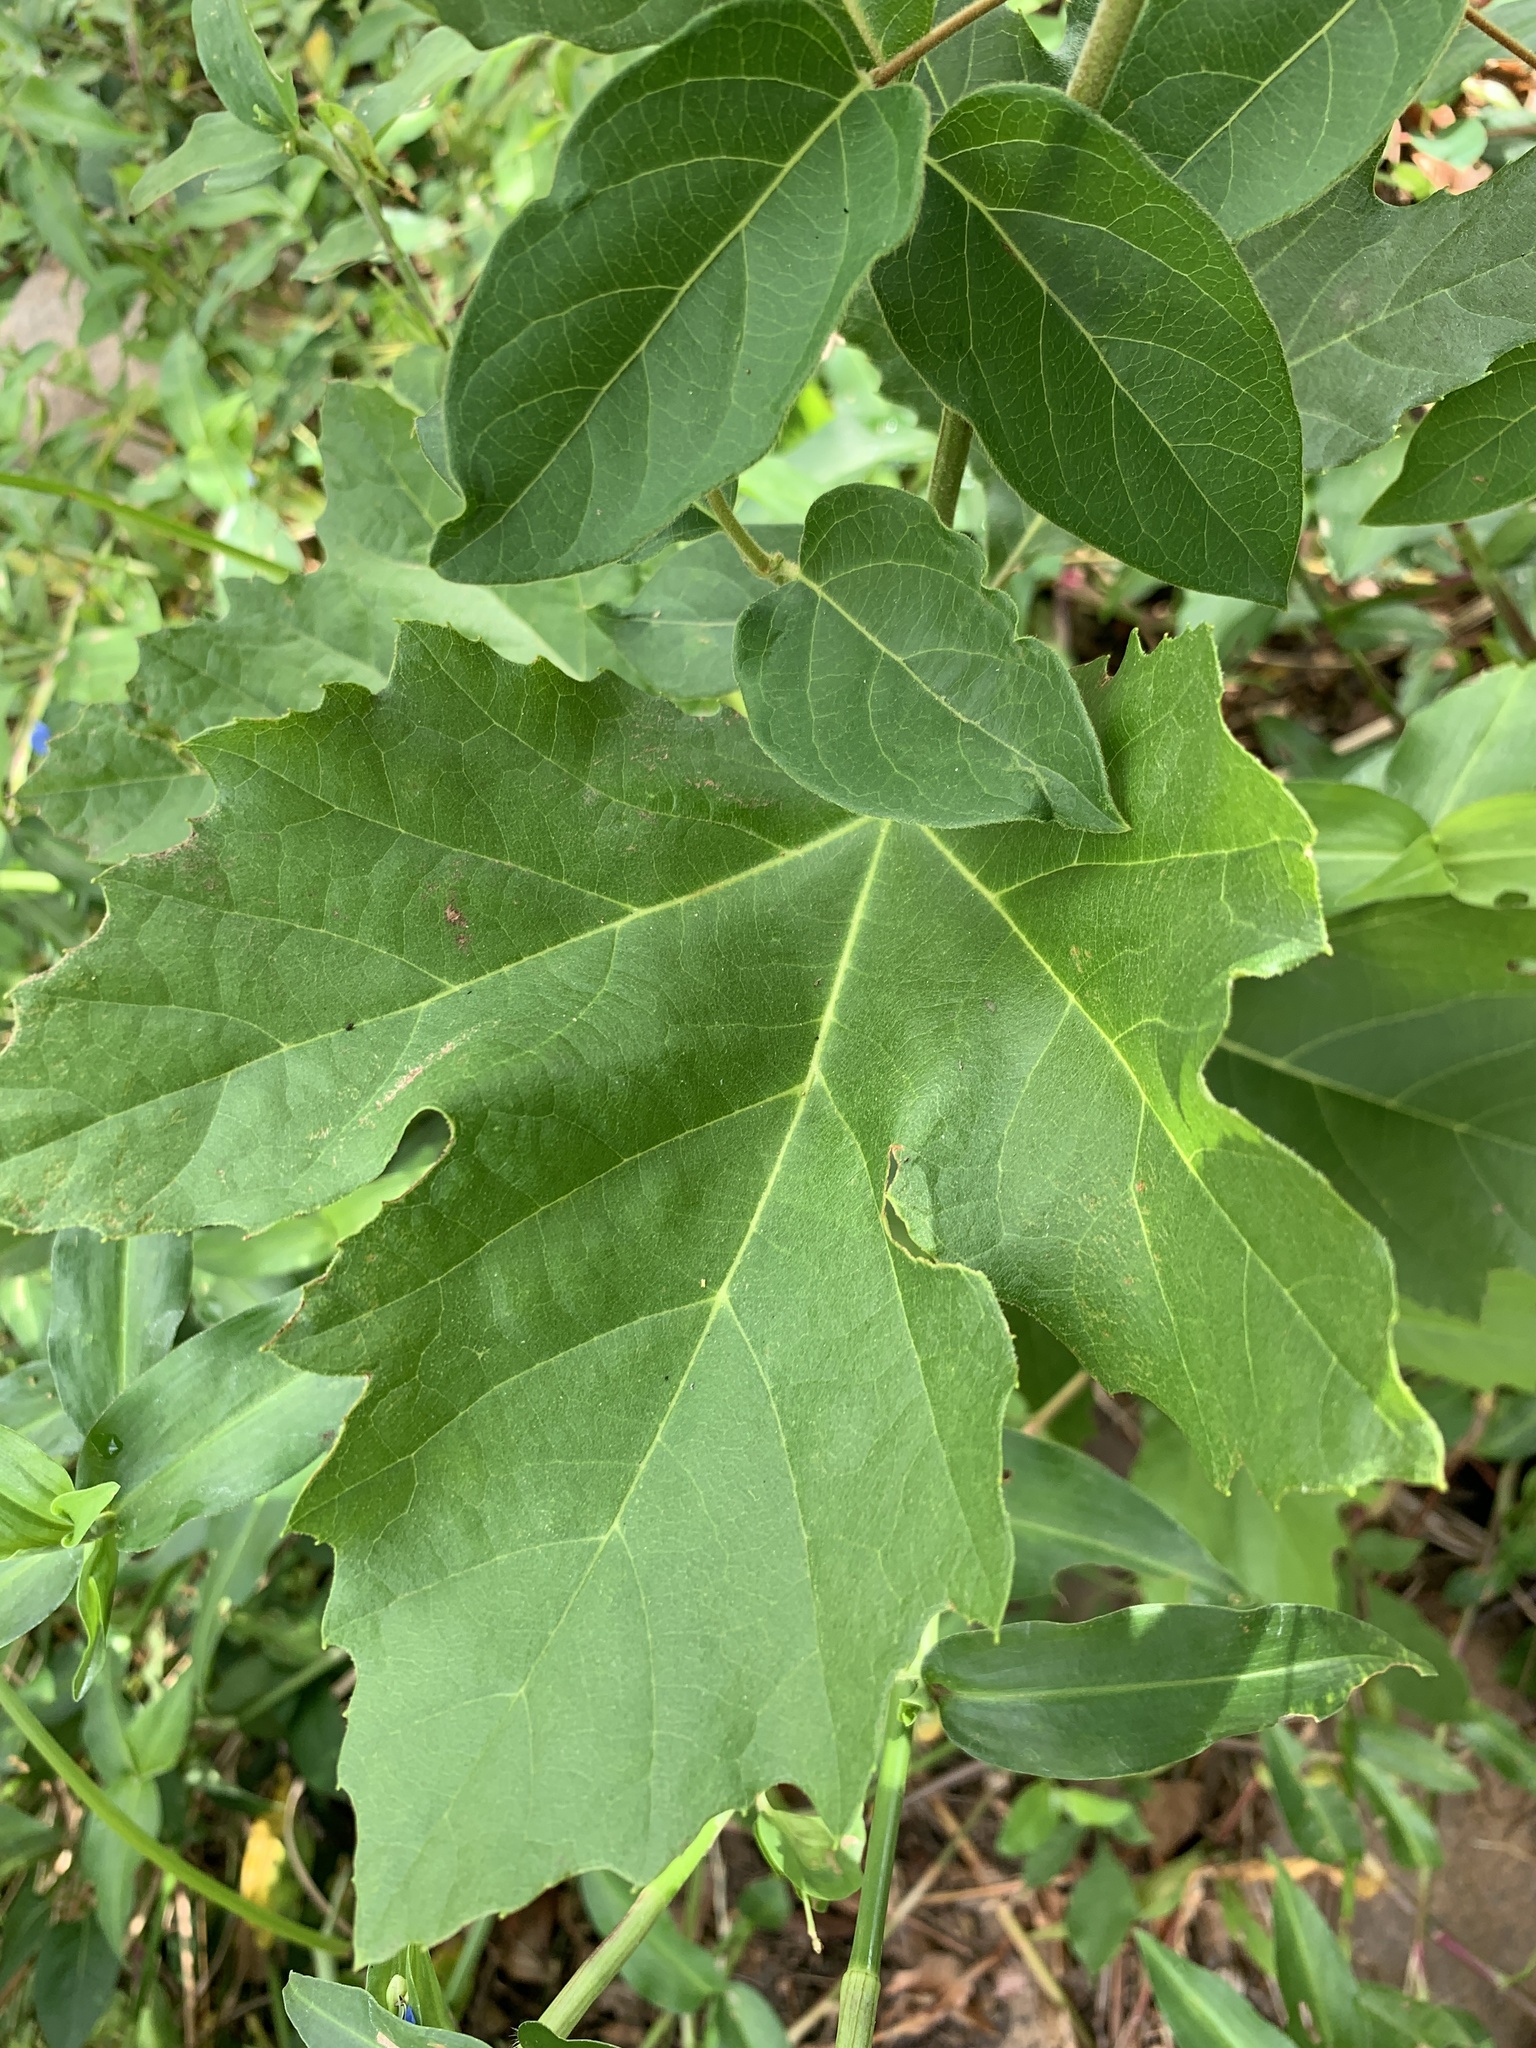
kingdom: Plantae
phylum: Tracheophyta
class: Magnoliopsida
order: Proteales
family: Platanaceae
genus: Platanus
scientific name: Platanus hispanica
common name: London plane
